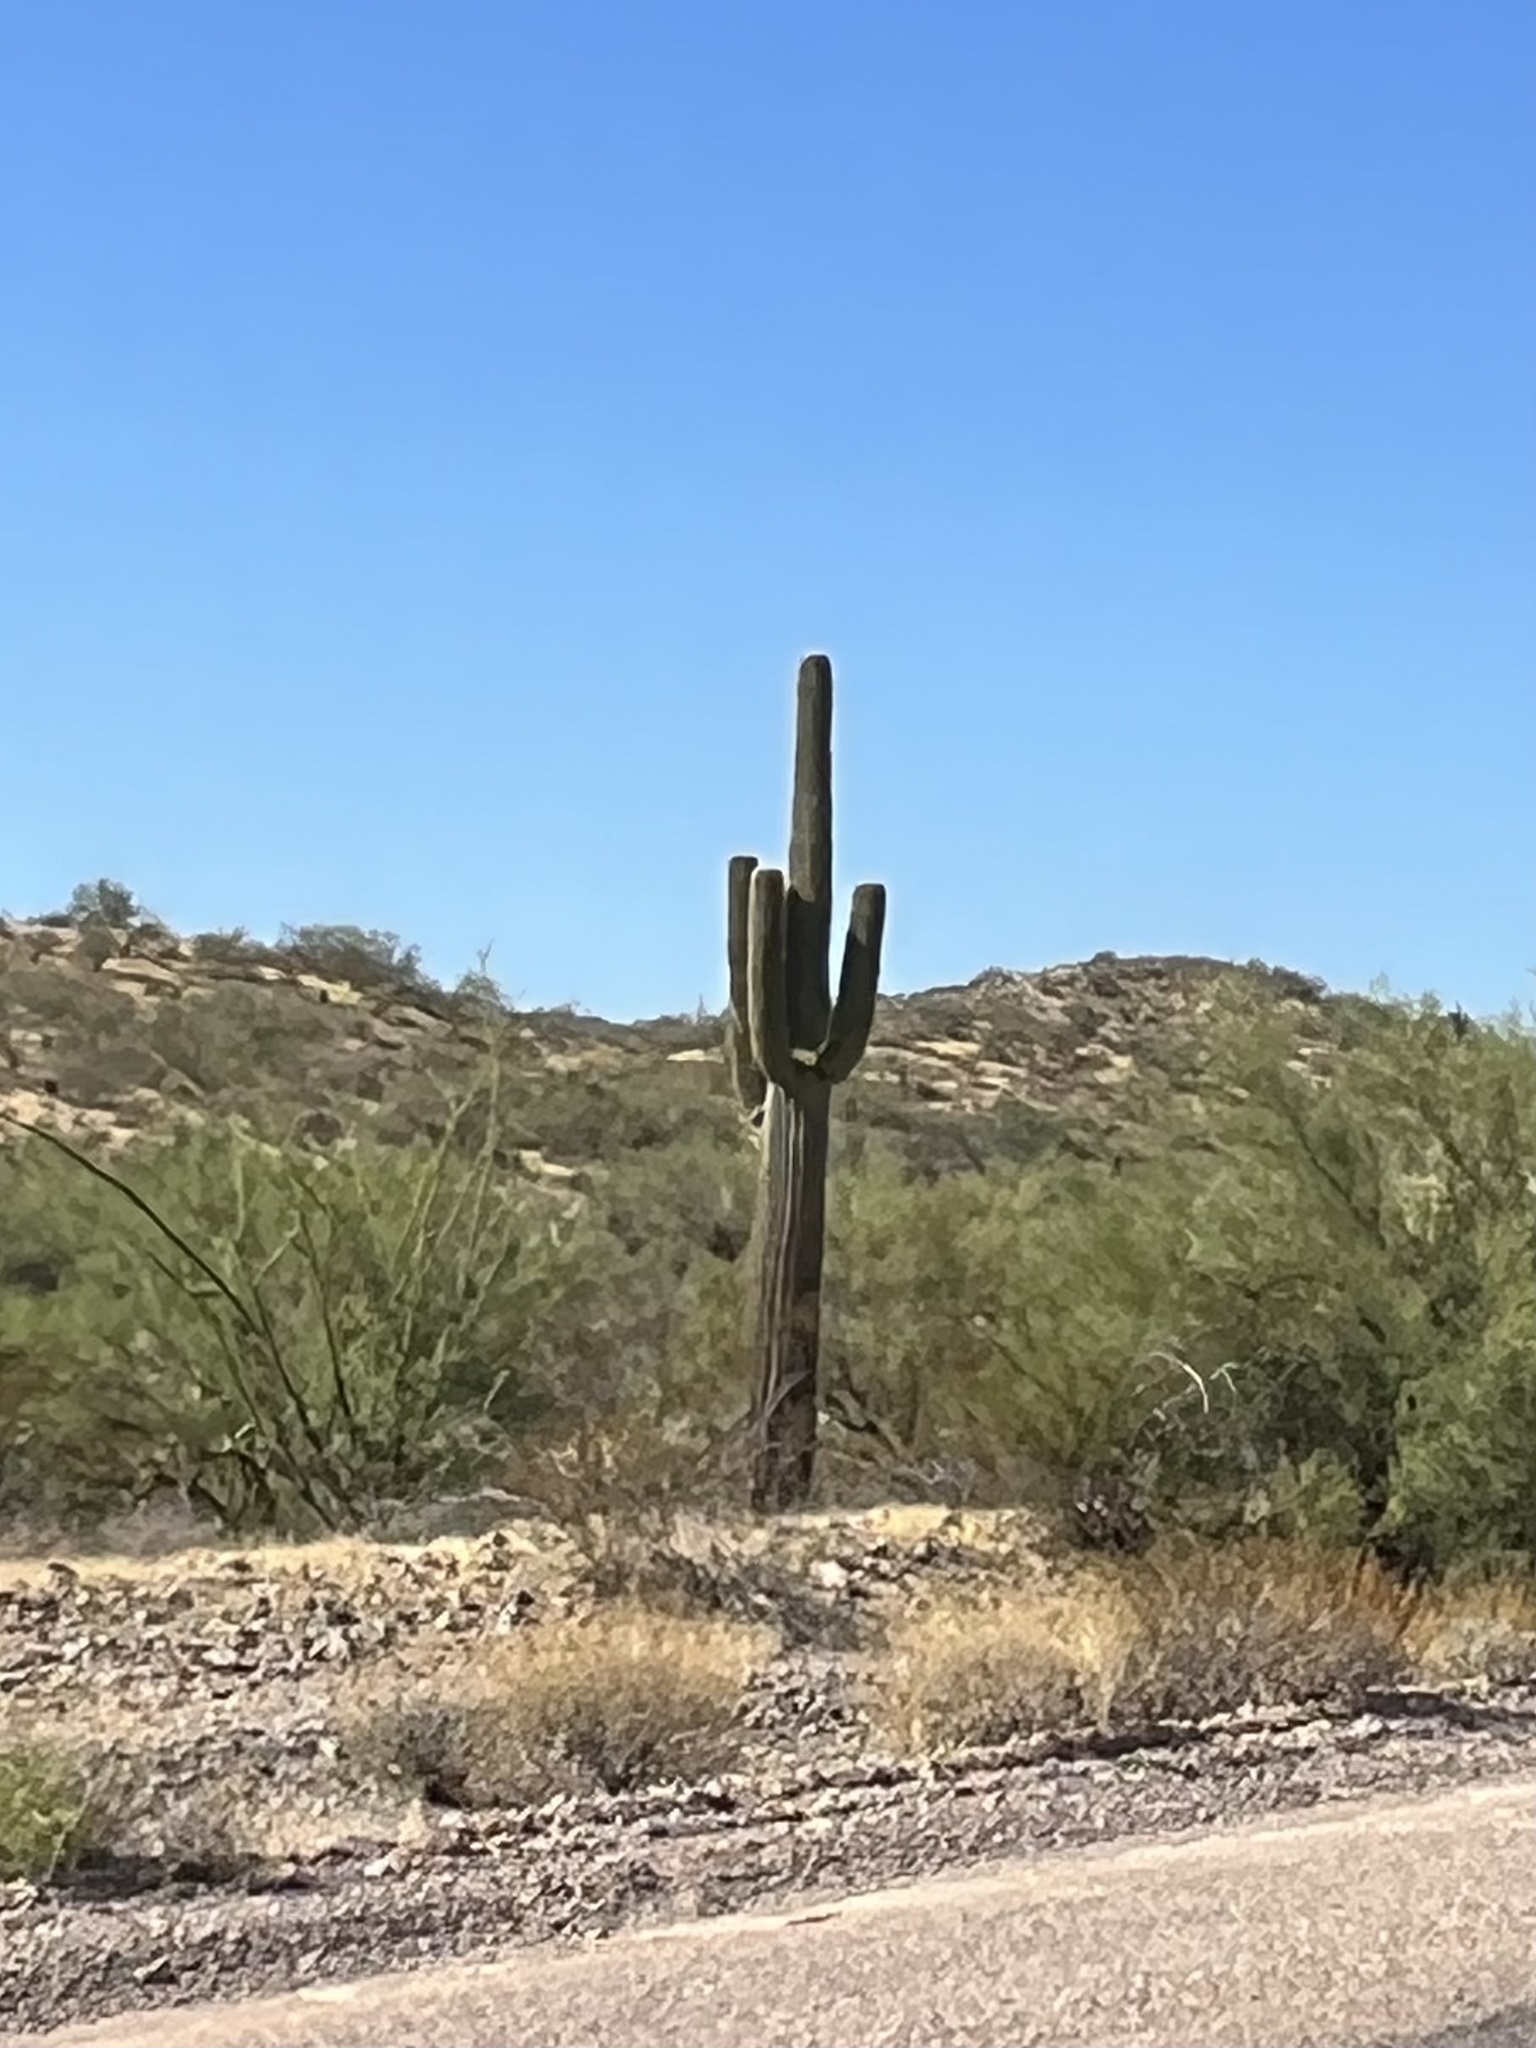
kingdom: Plantae
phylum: Tracheophyta
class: Magnoliopsida
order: Caryophyllales
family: Cactaceae
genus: Carnegiea
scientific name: Carnegiea gigantea
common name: Saguaro
